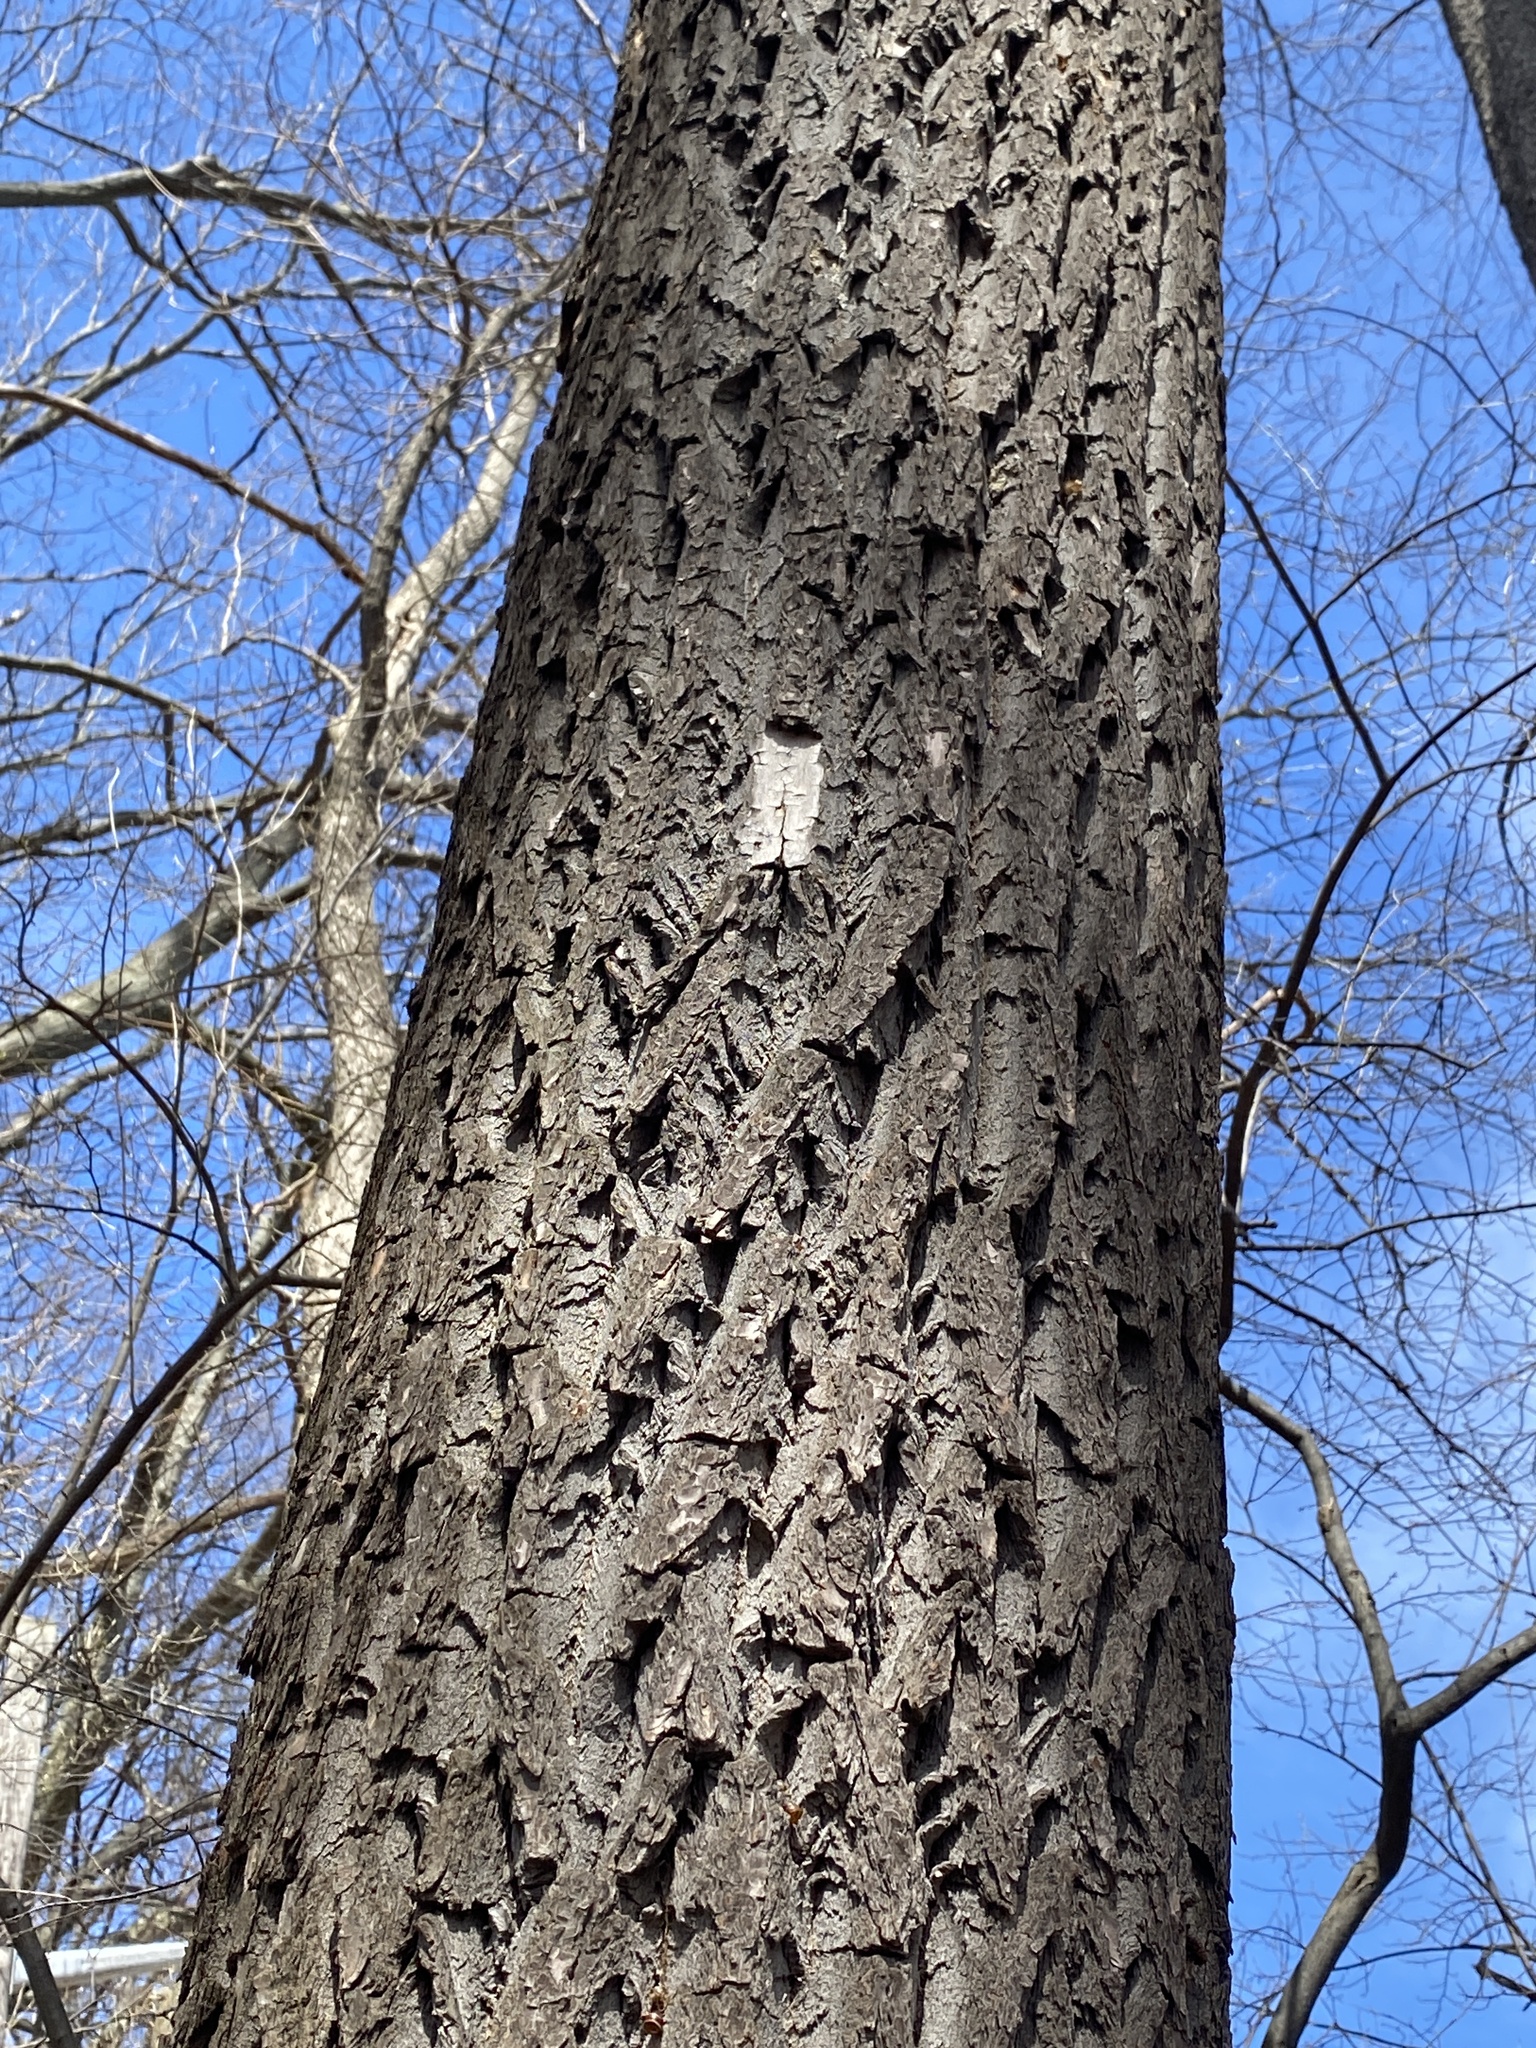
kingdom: Plantae
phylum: Tracheophyta
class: Magnoliopsida
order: Laurales
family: Lauraceae
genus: Sassafras
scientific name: Sassafras albidum
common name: Sassafras
